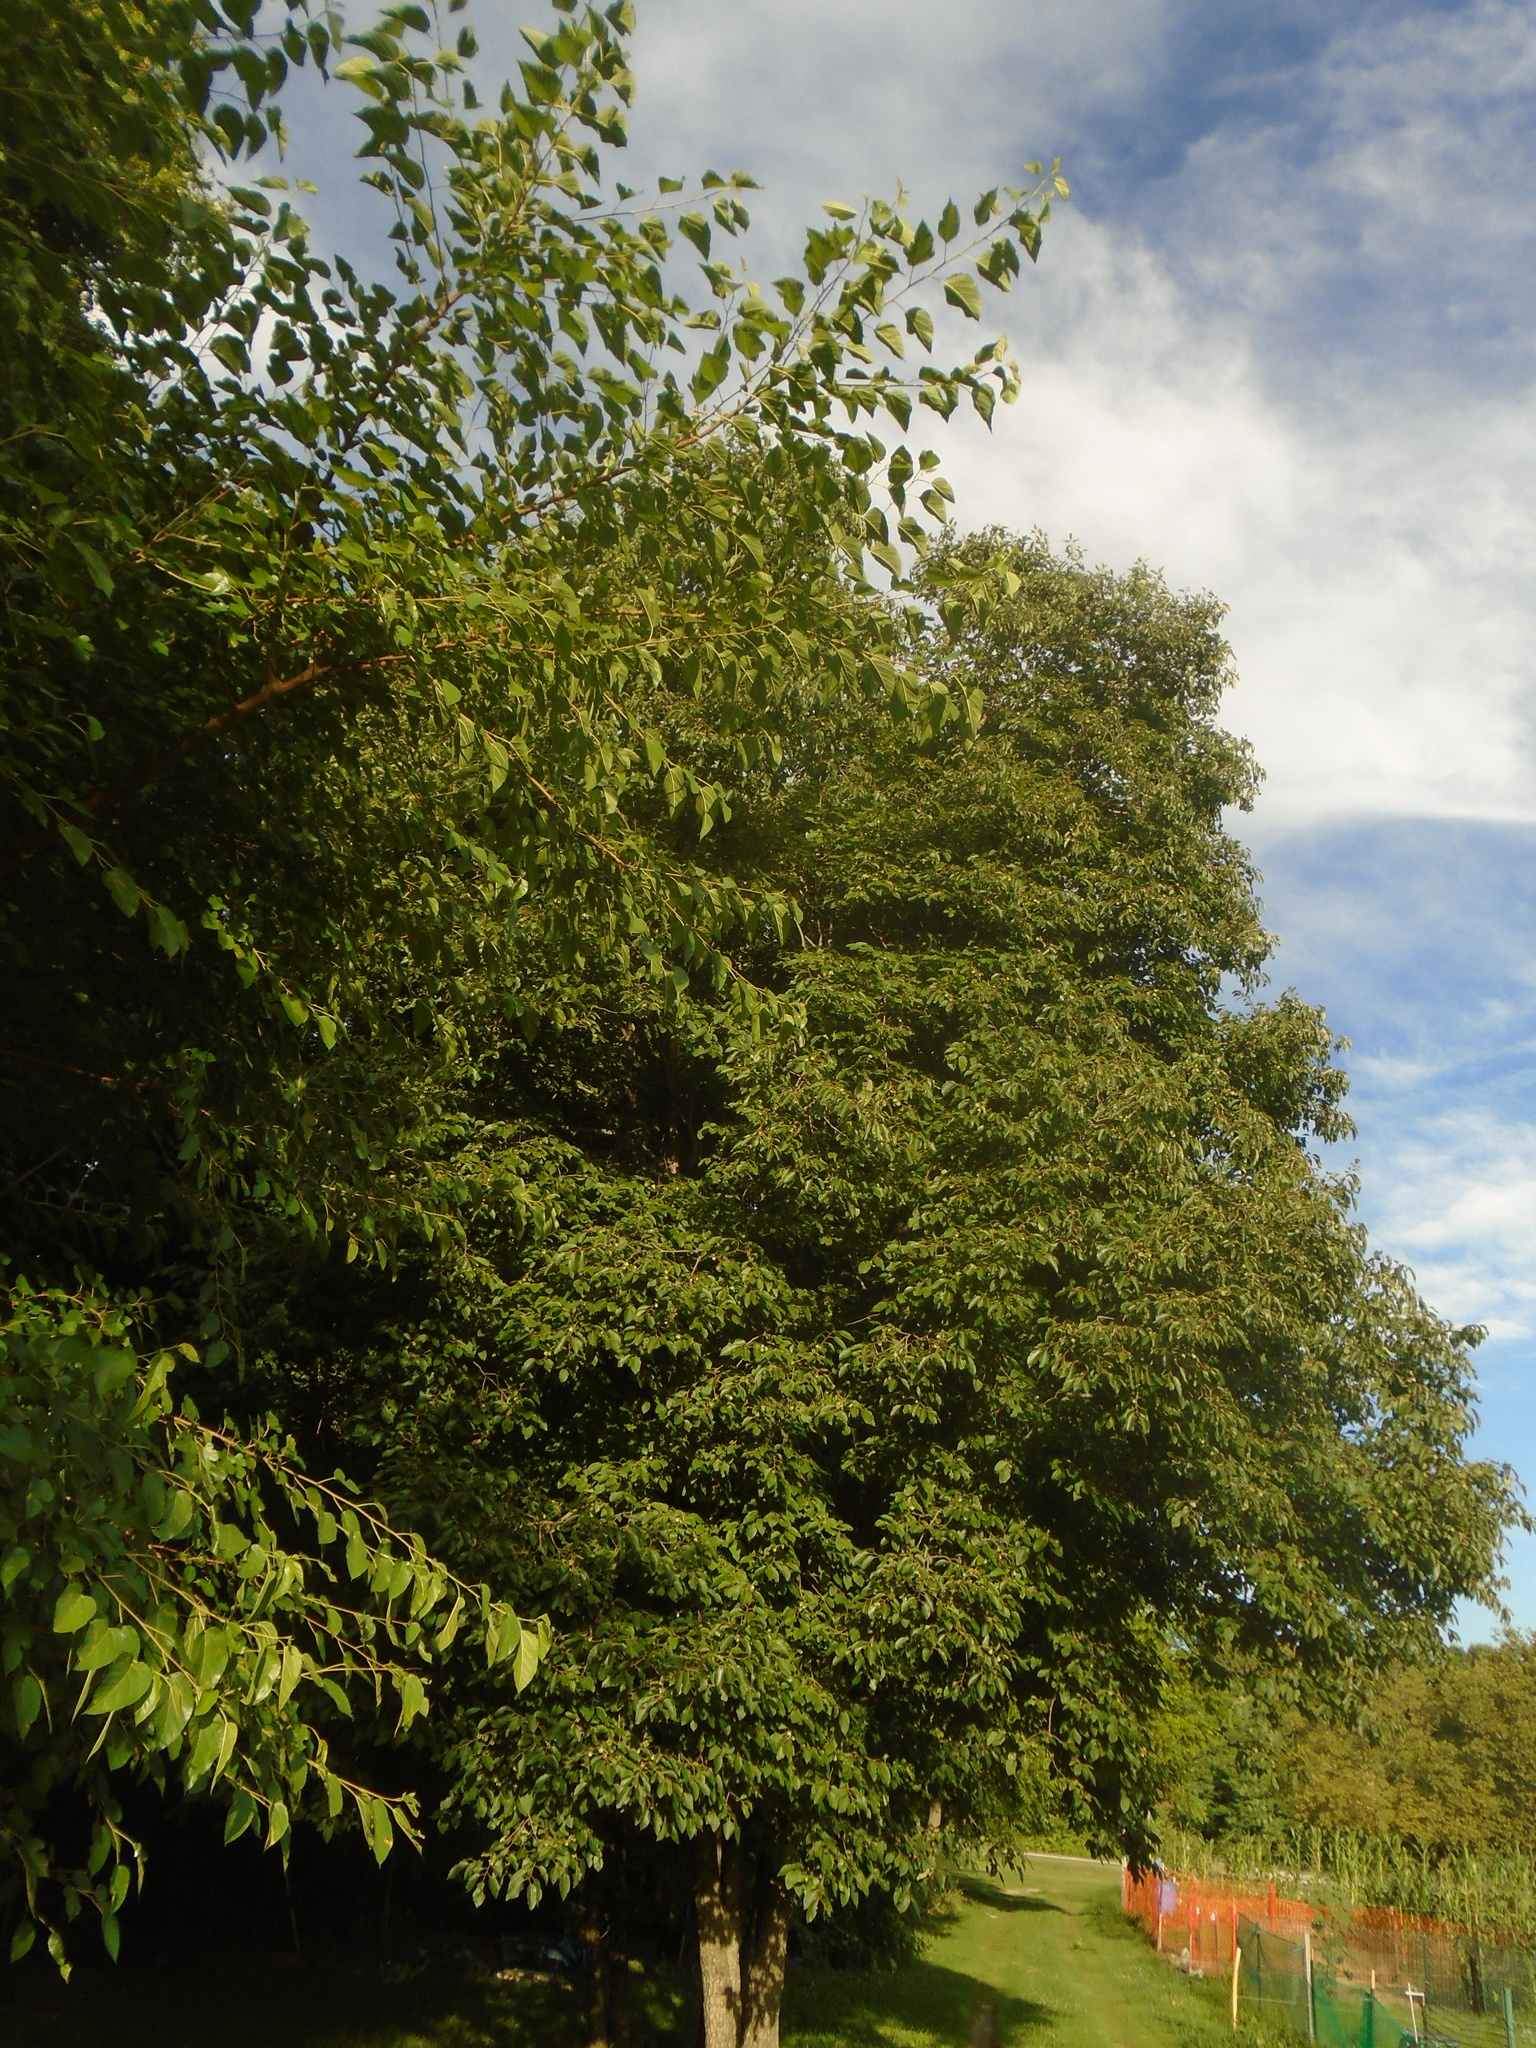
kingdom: Plantae
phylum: Tracheophyta
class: Magnoliopsida
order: Ericales
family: Ebenaceae
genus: Diospyros
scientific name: Diospyros virginiana
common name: Persimmon
